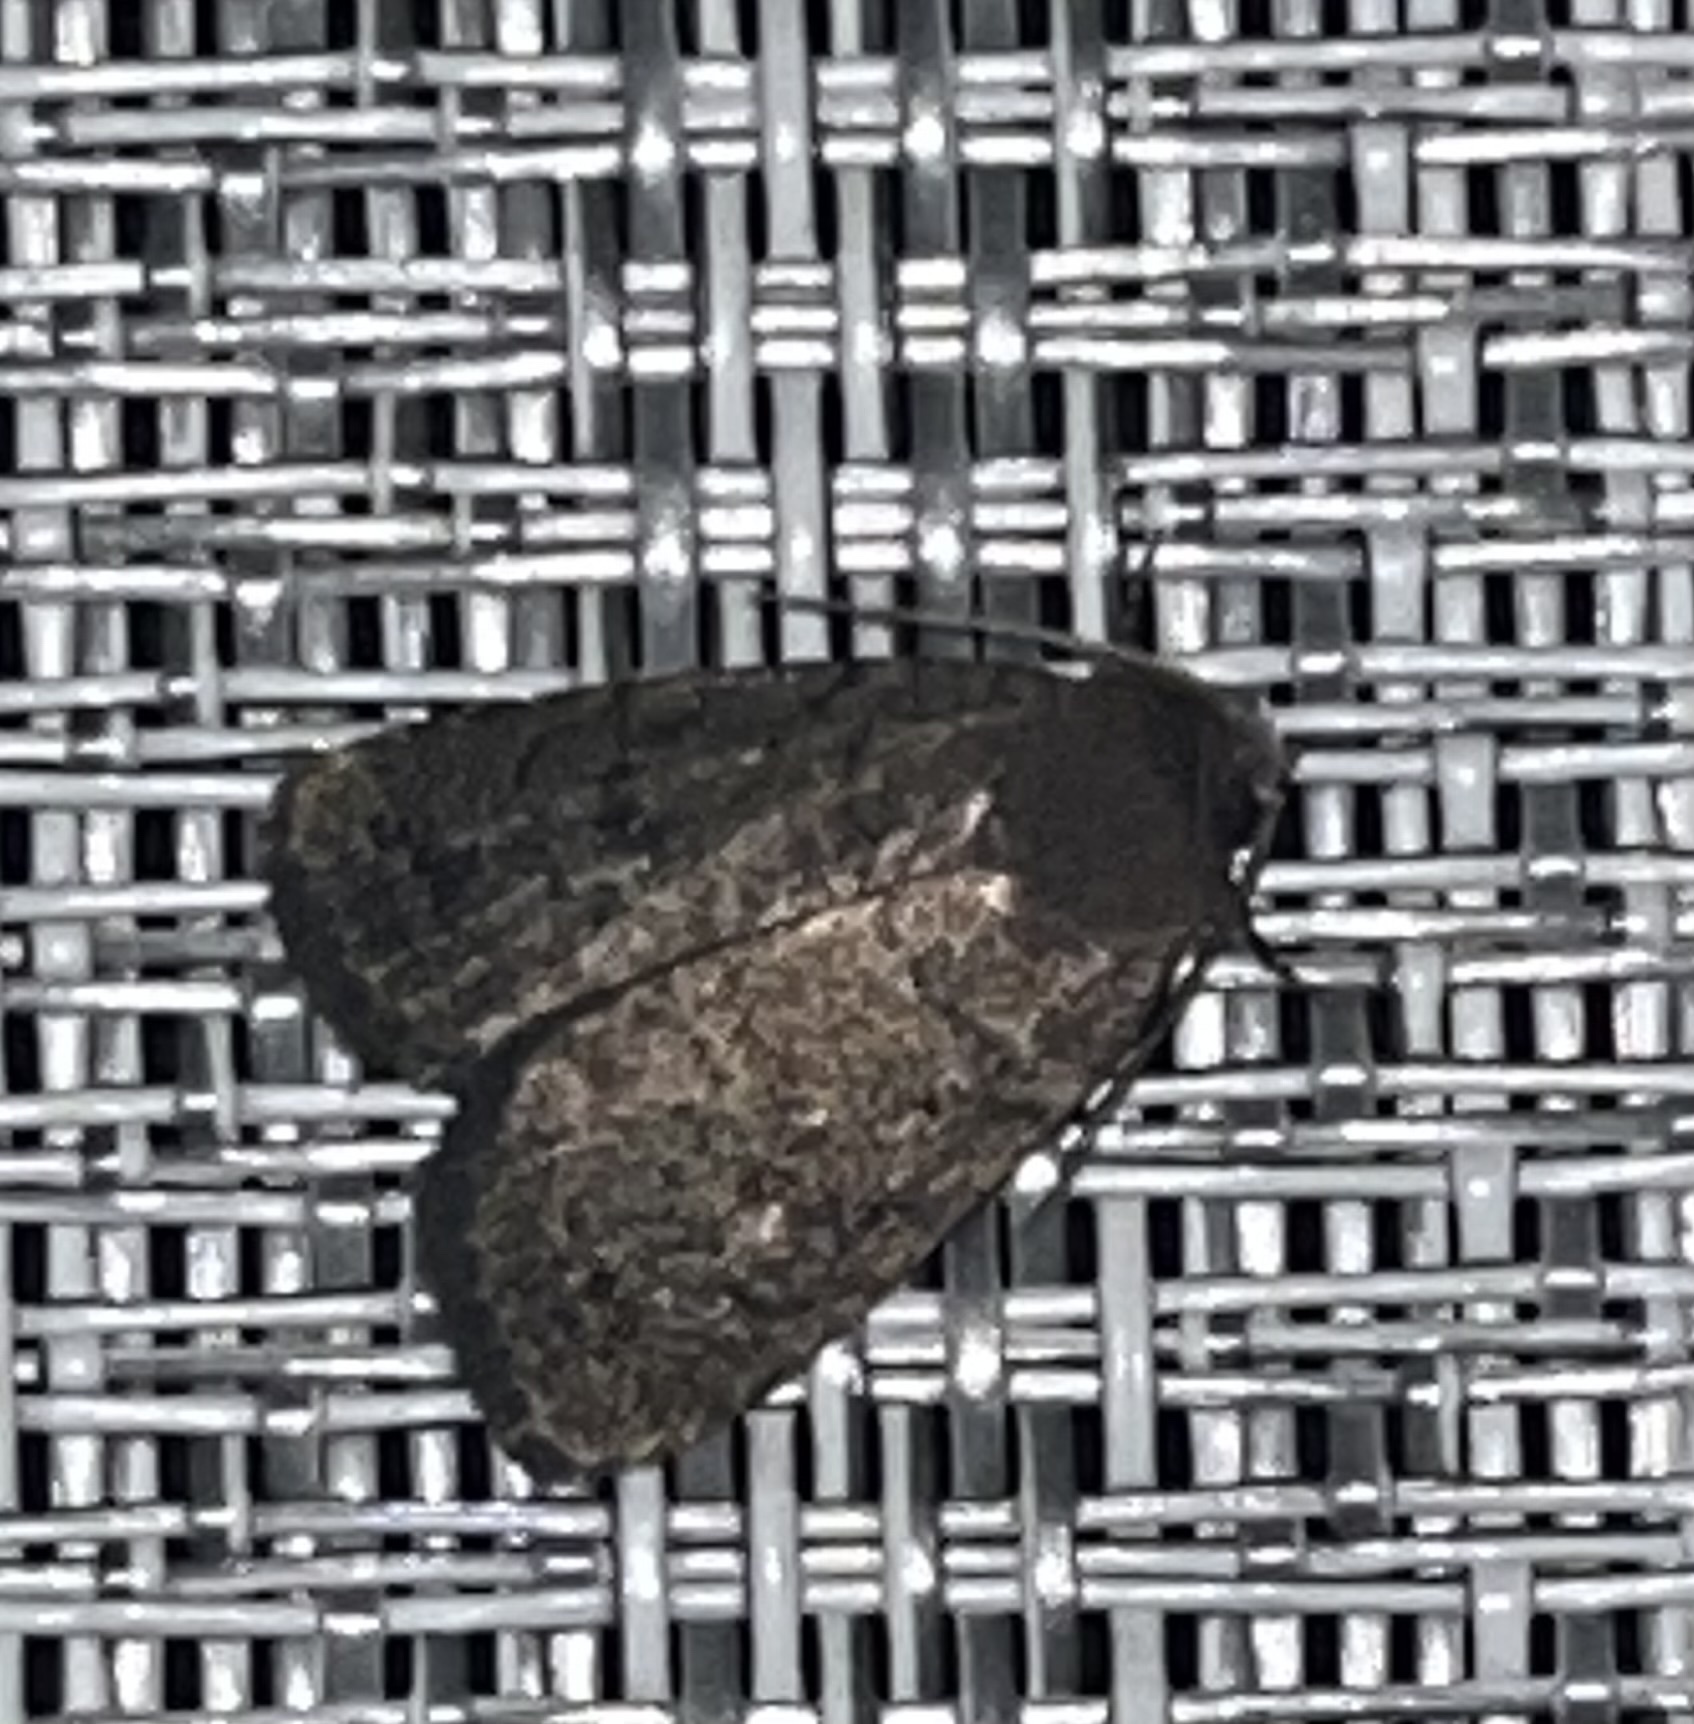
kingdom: Animalia
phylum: Arthropoda
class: Insecta
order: Lepidoptera
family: Noctuidae
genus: Athetis
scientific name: Athetis tarda
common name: Slowpoke moth
